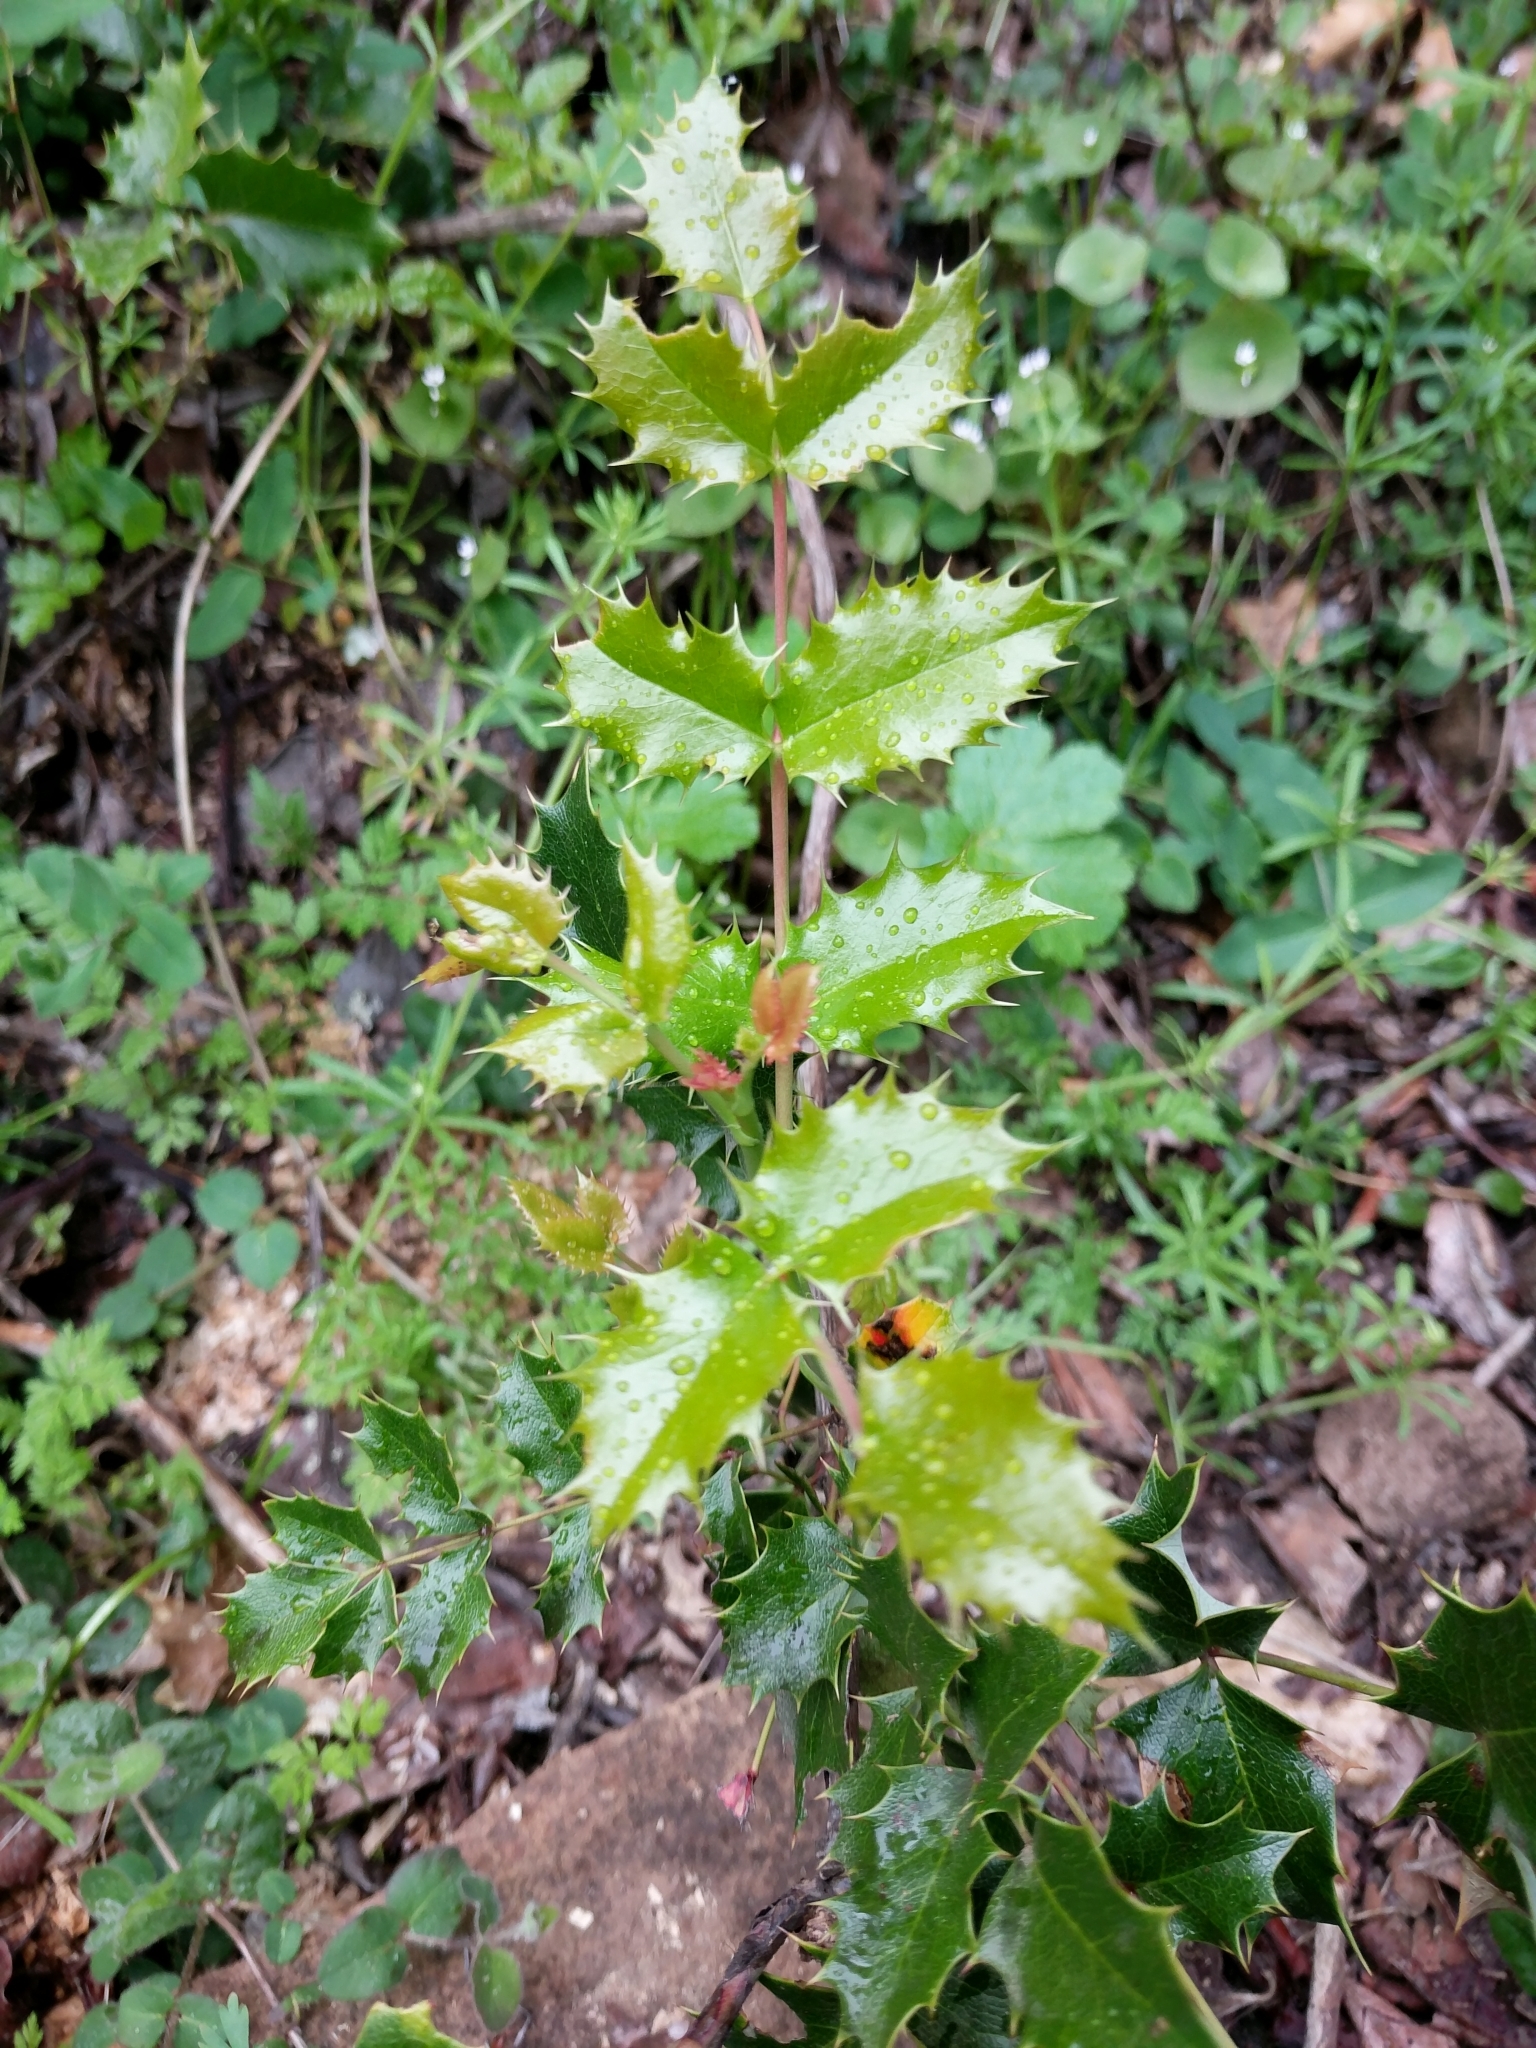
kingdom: Plantae
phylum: Tracheophyta
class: Magnoliopsida
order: Ranunculales
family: Berberidaceae
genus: Mahonia
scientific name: Mahonia aquifolium
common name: Oregon-grape
